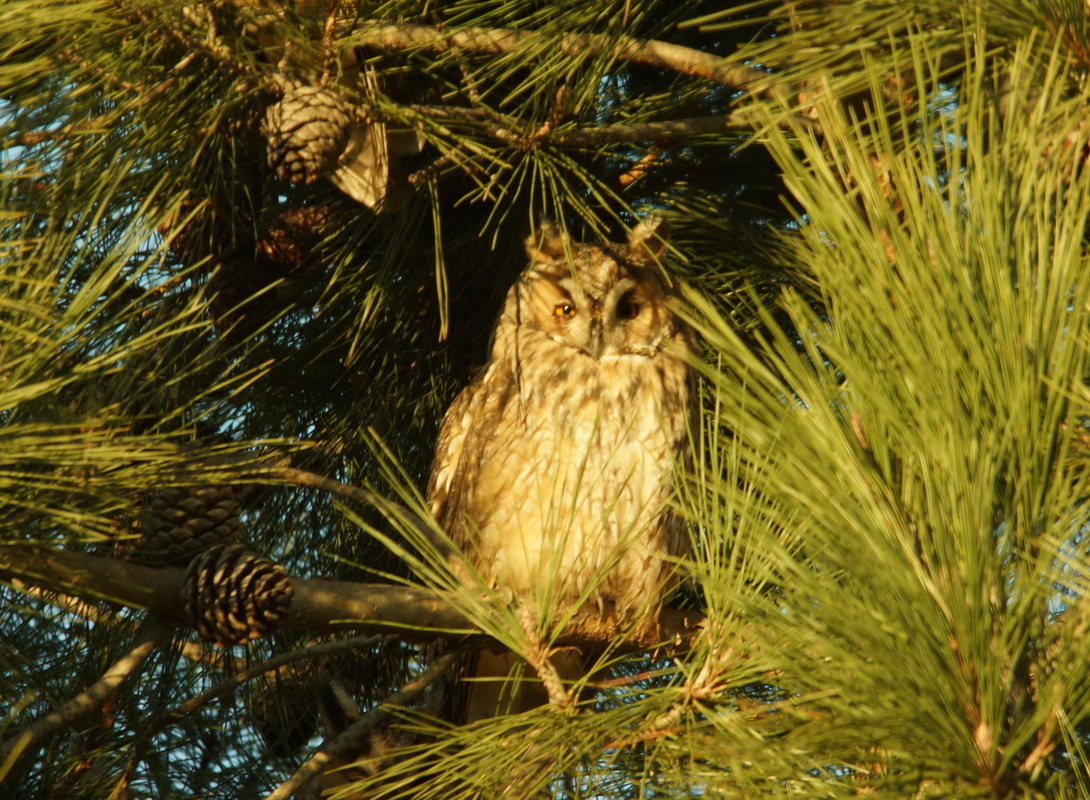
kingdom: Animalia
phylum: Chordata
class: Aves
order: Strigiformes
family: Strigidae
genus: Asio
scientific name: Asio otus
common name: Long-eared owl
